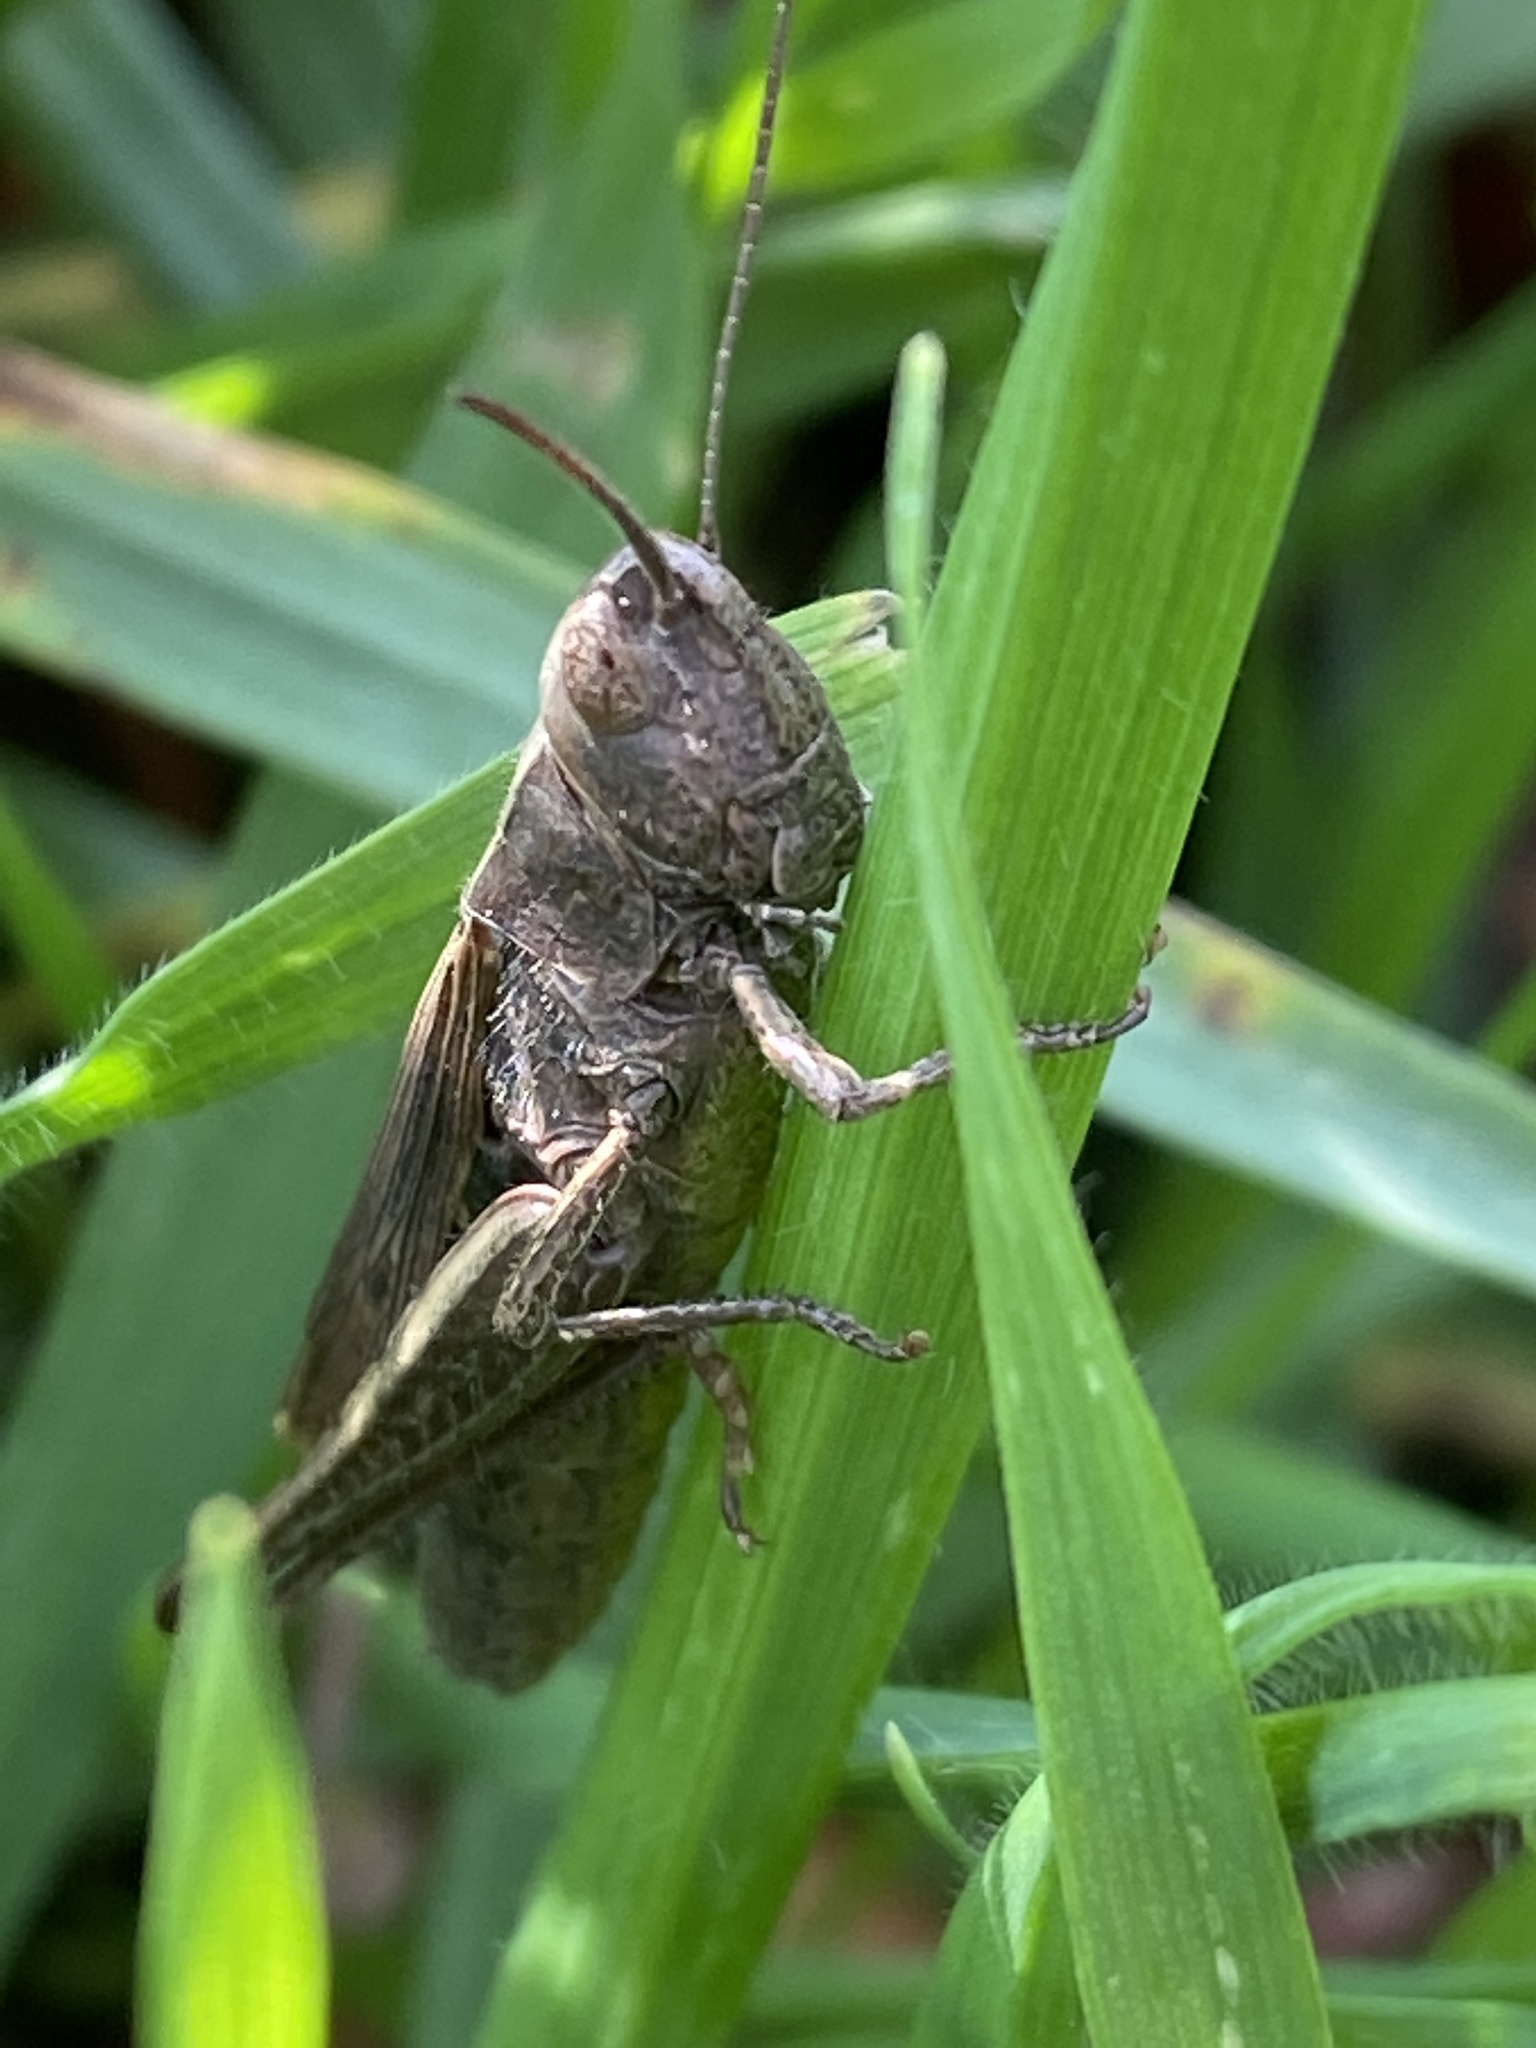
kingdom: Animalia
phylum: Arthropoda
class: Insecta
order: Orthoptera
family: Acrididae
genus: Chorthippus
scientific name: Chorthippus dorsatus
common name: Steppe grasshopper
